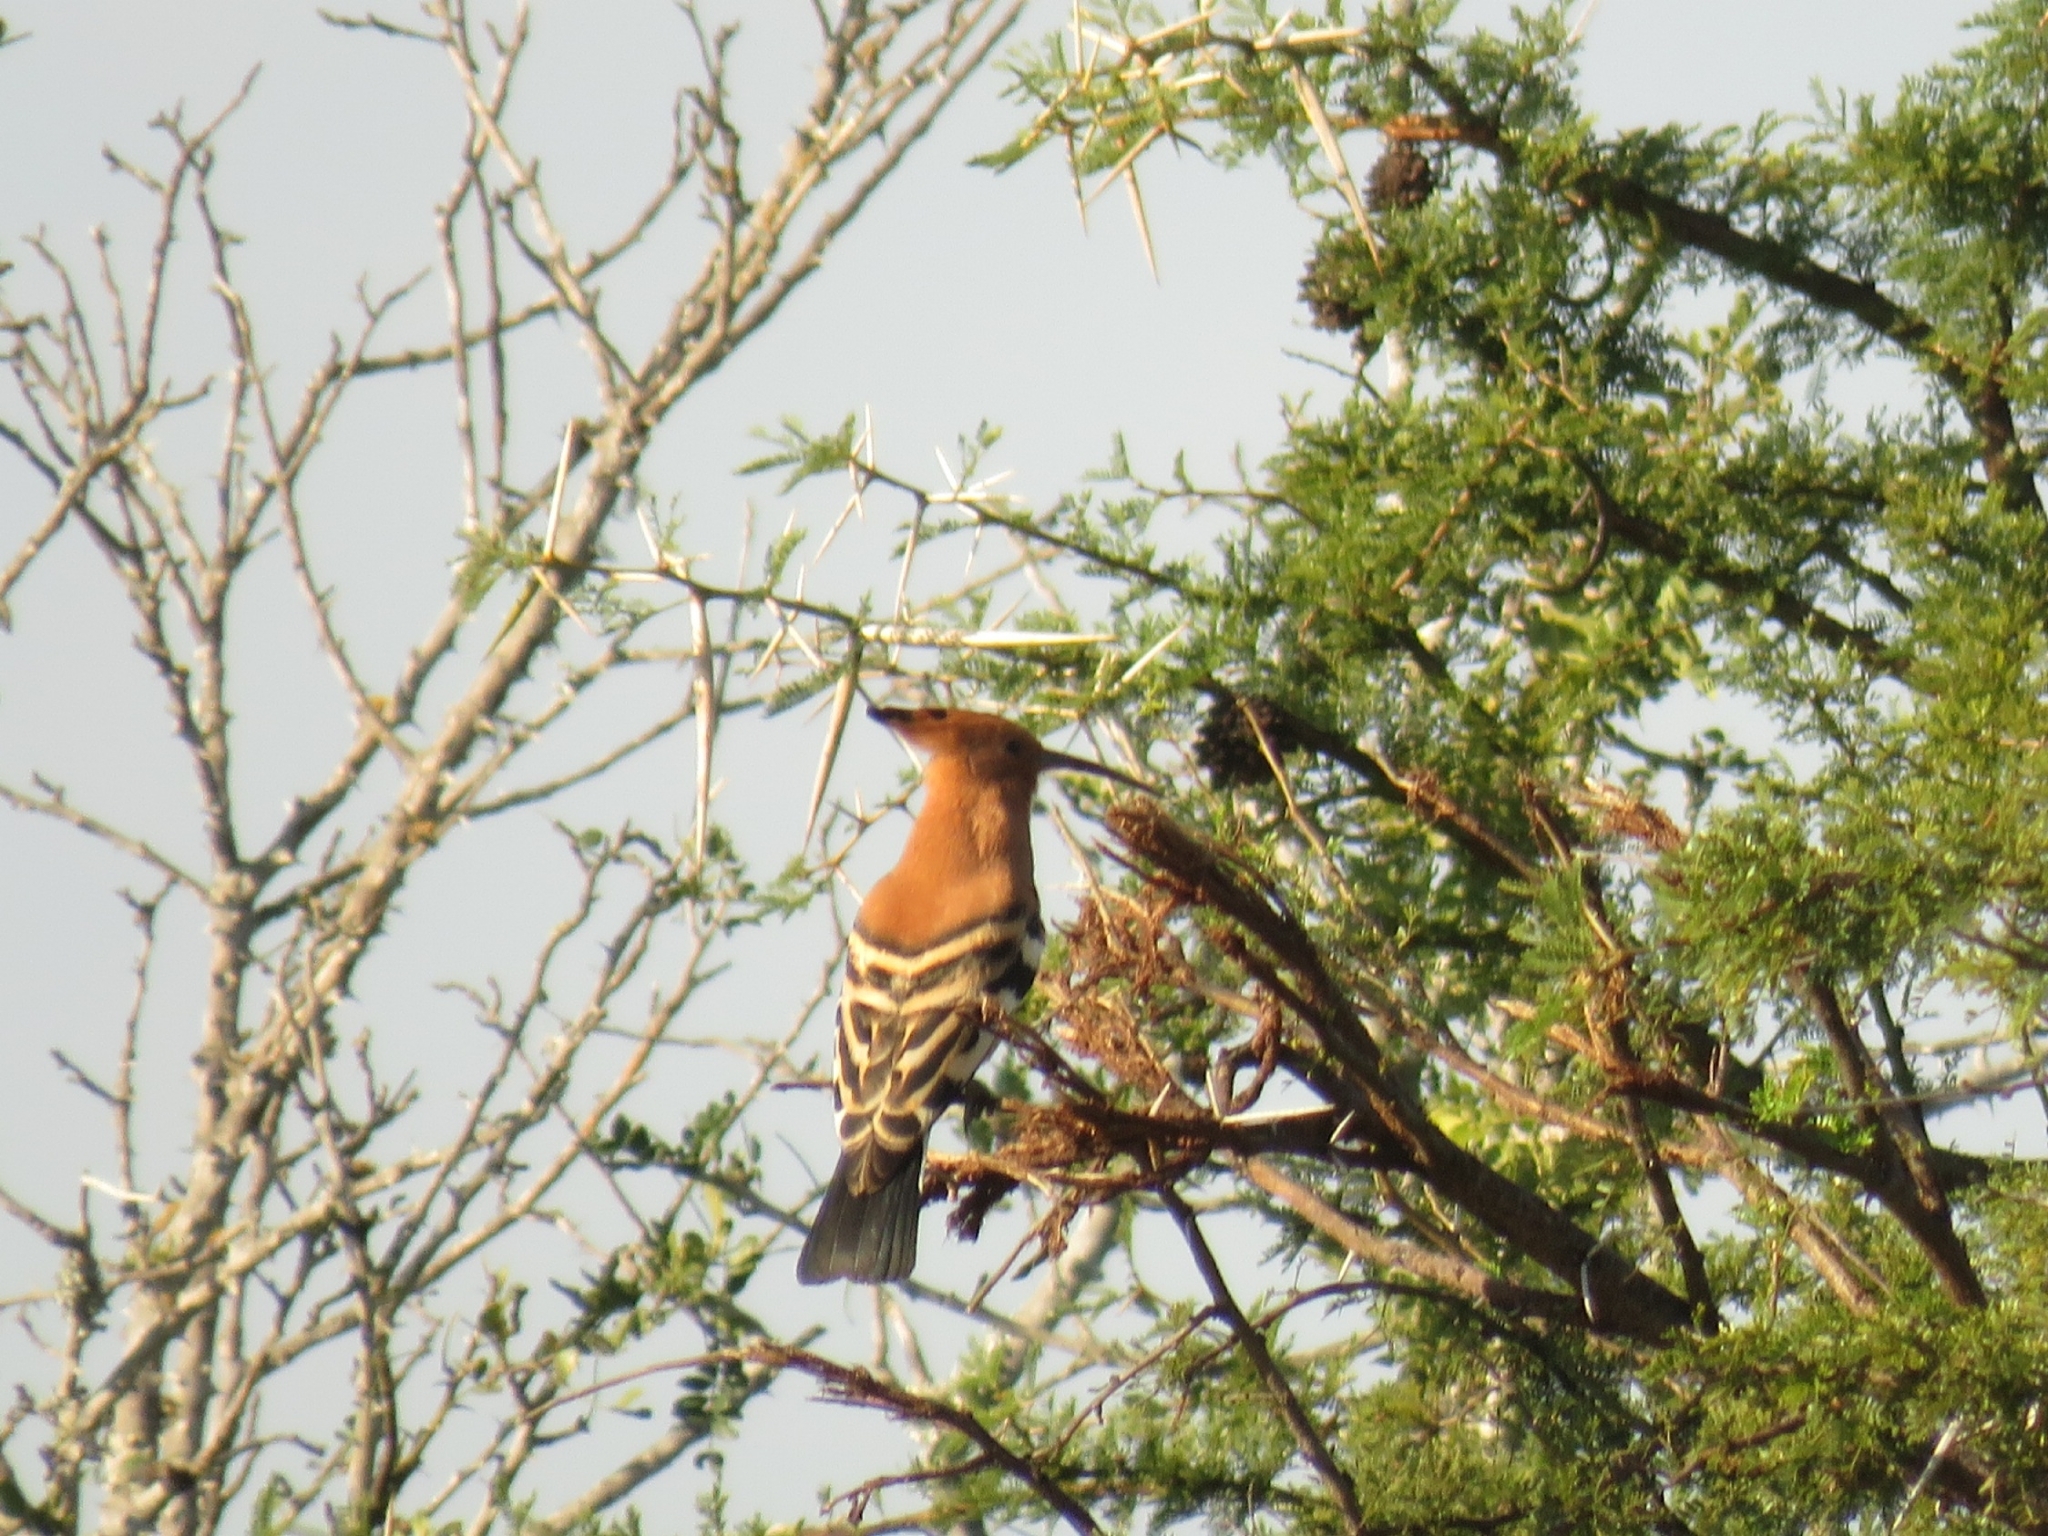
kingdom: Animalia
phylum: Chordata
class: Aves
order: Bucerotiformes
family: Upupidae
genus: Upupa
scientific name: Upupa africana
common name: African hoopoe
